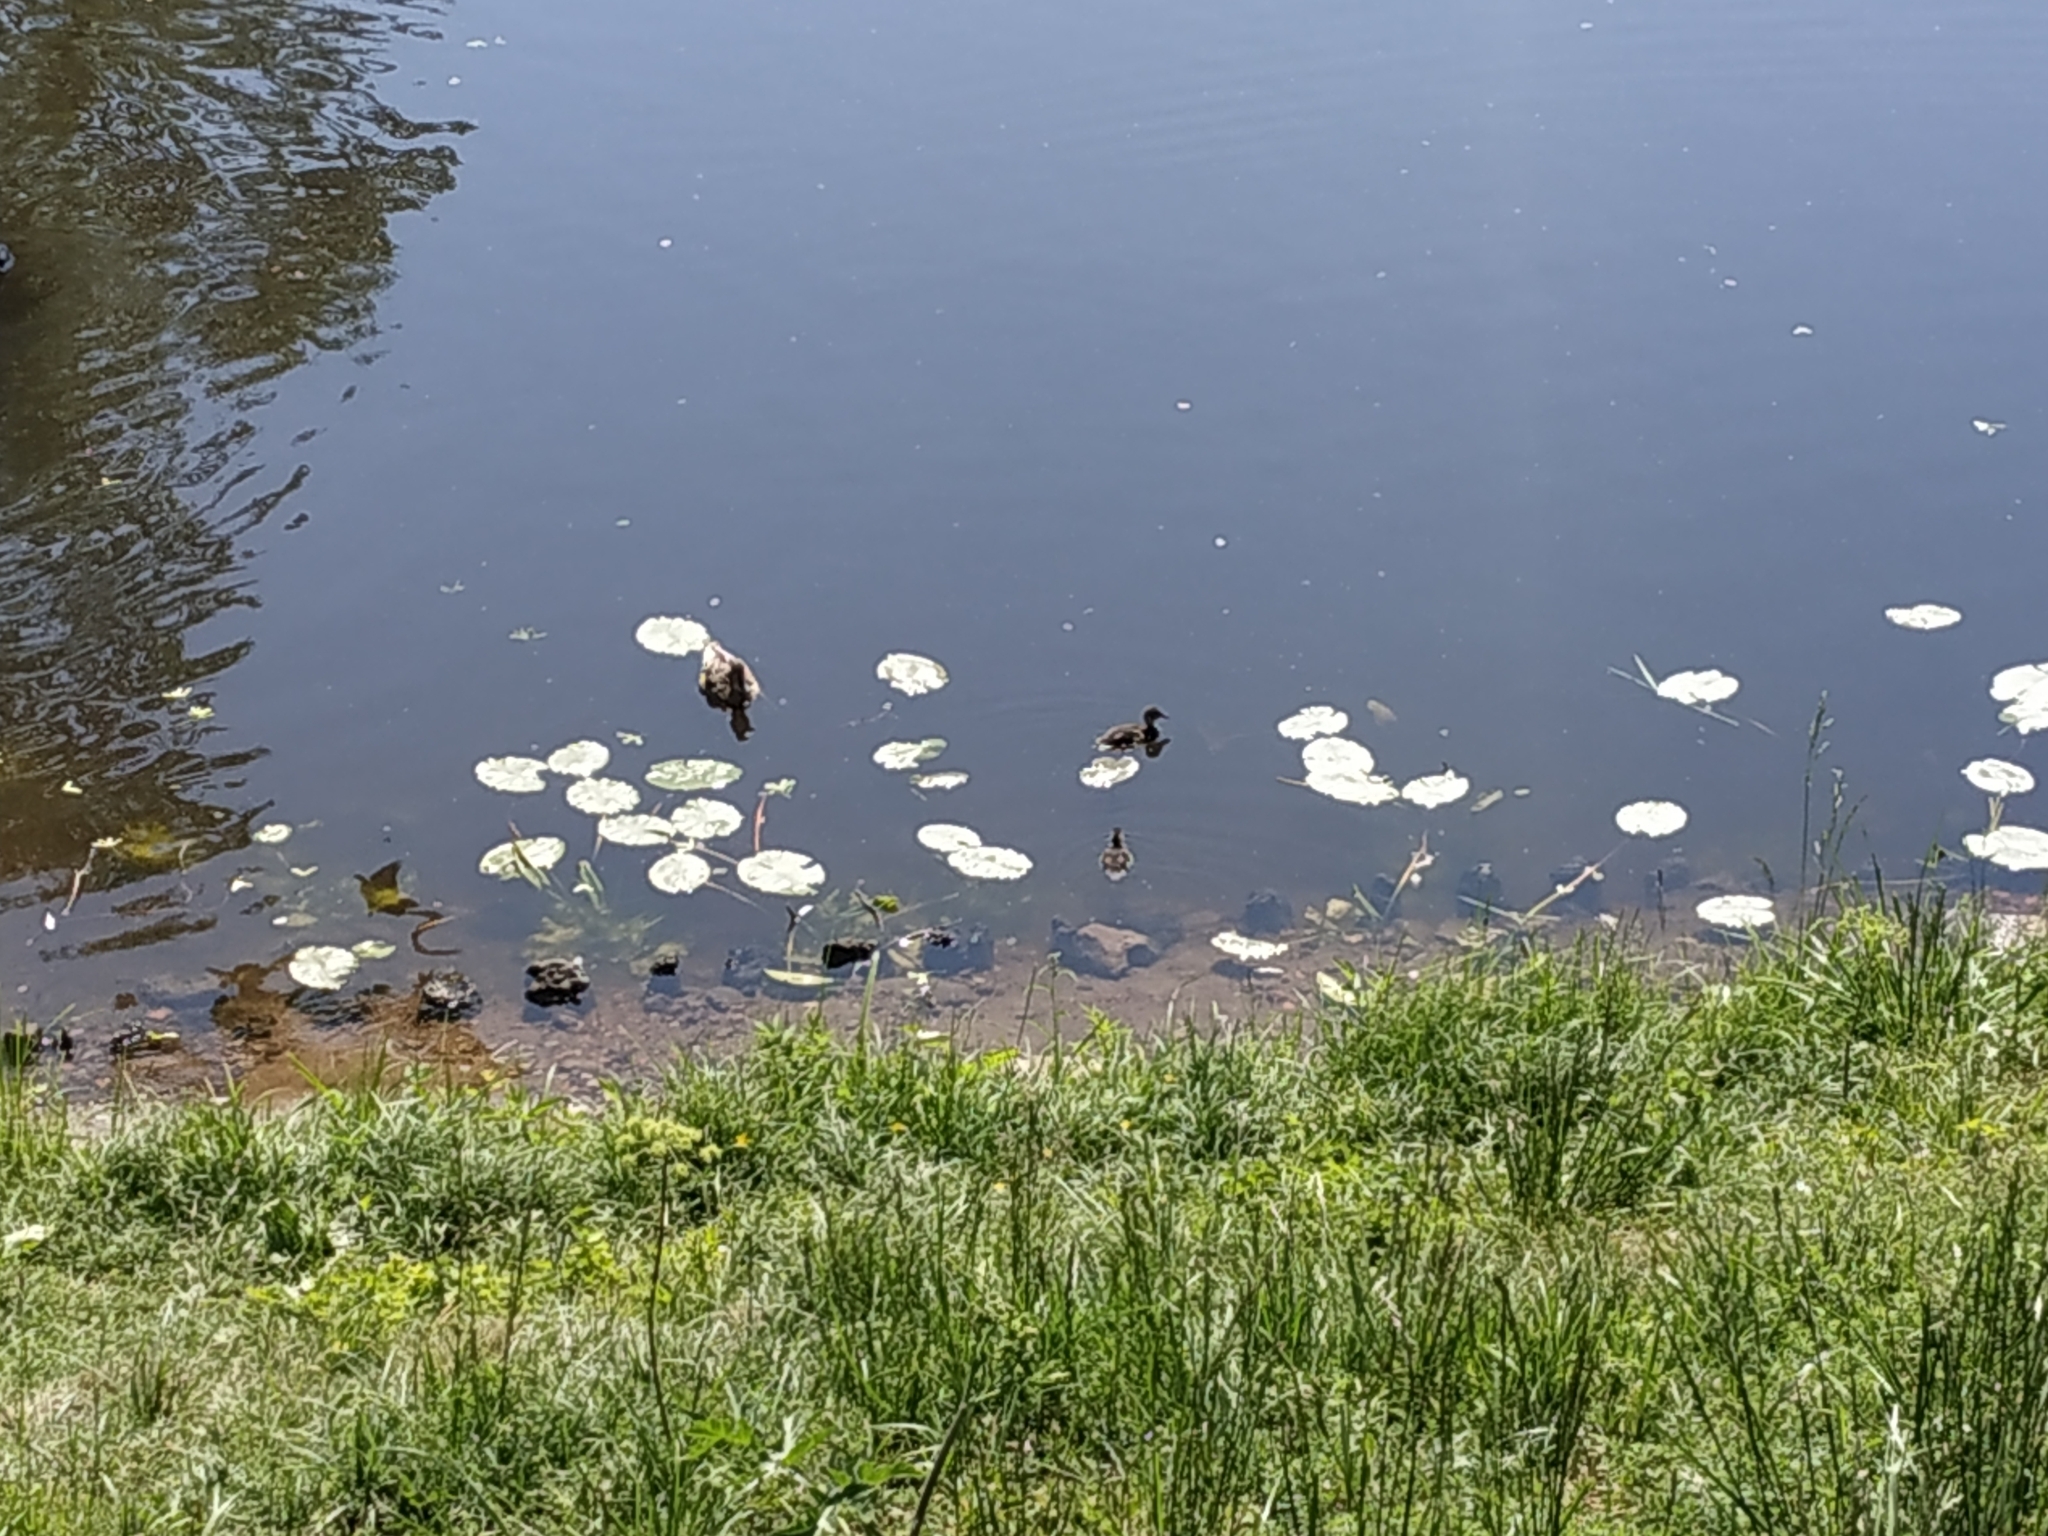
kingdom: Animalia
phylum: Chordata
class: Aves
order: Anseriformes
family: Anatidae
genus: Anas
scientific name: Anas platyrhynchos
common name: Mallard
